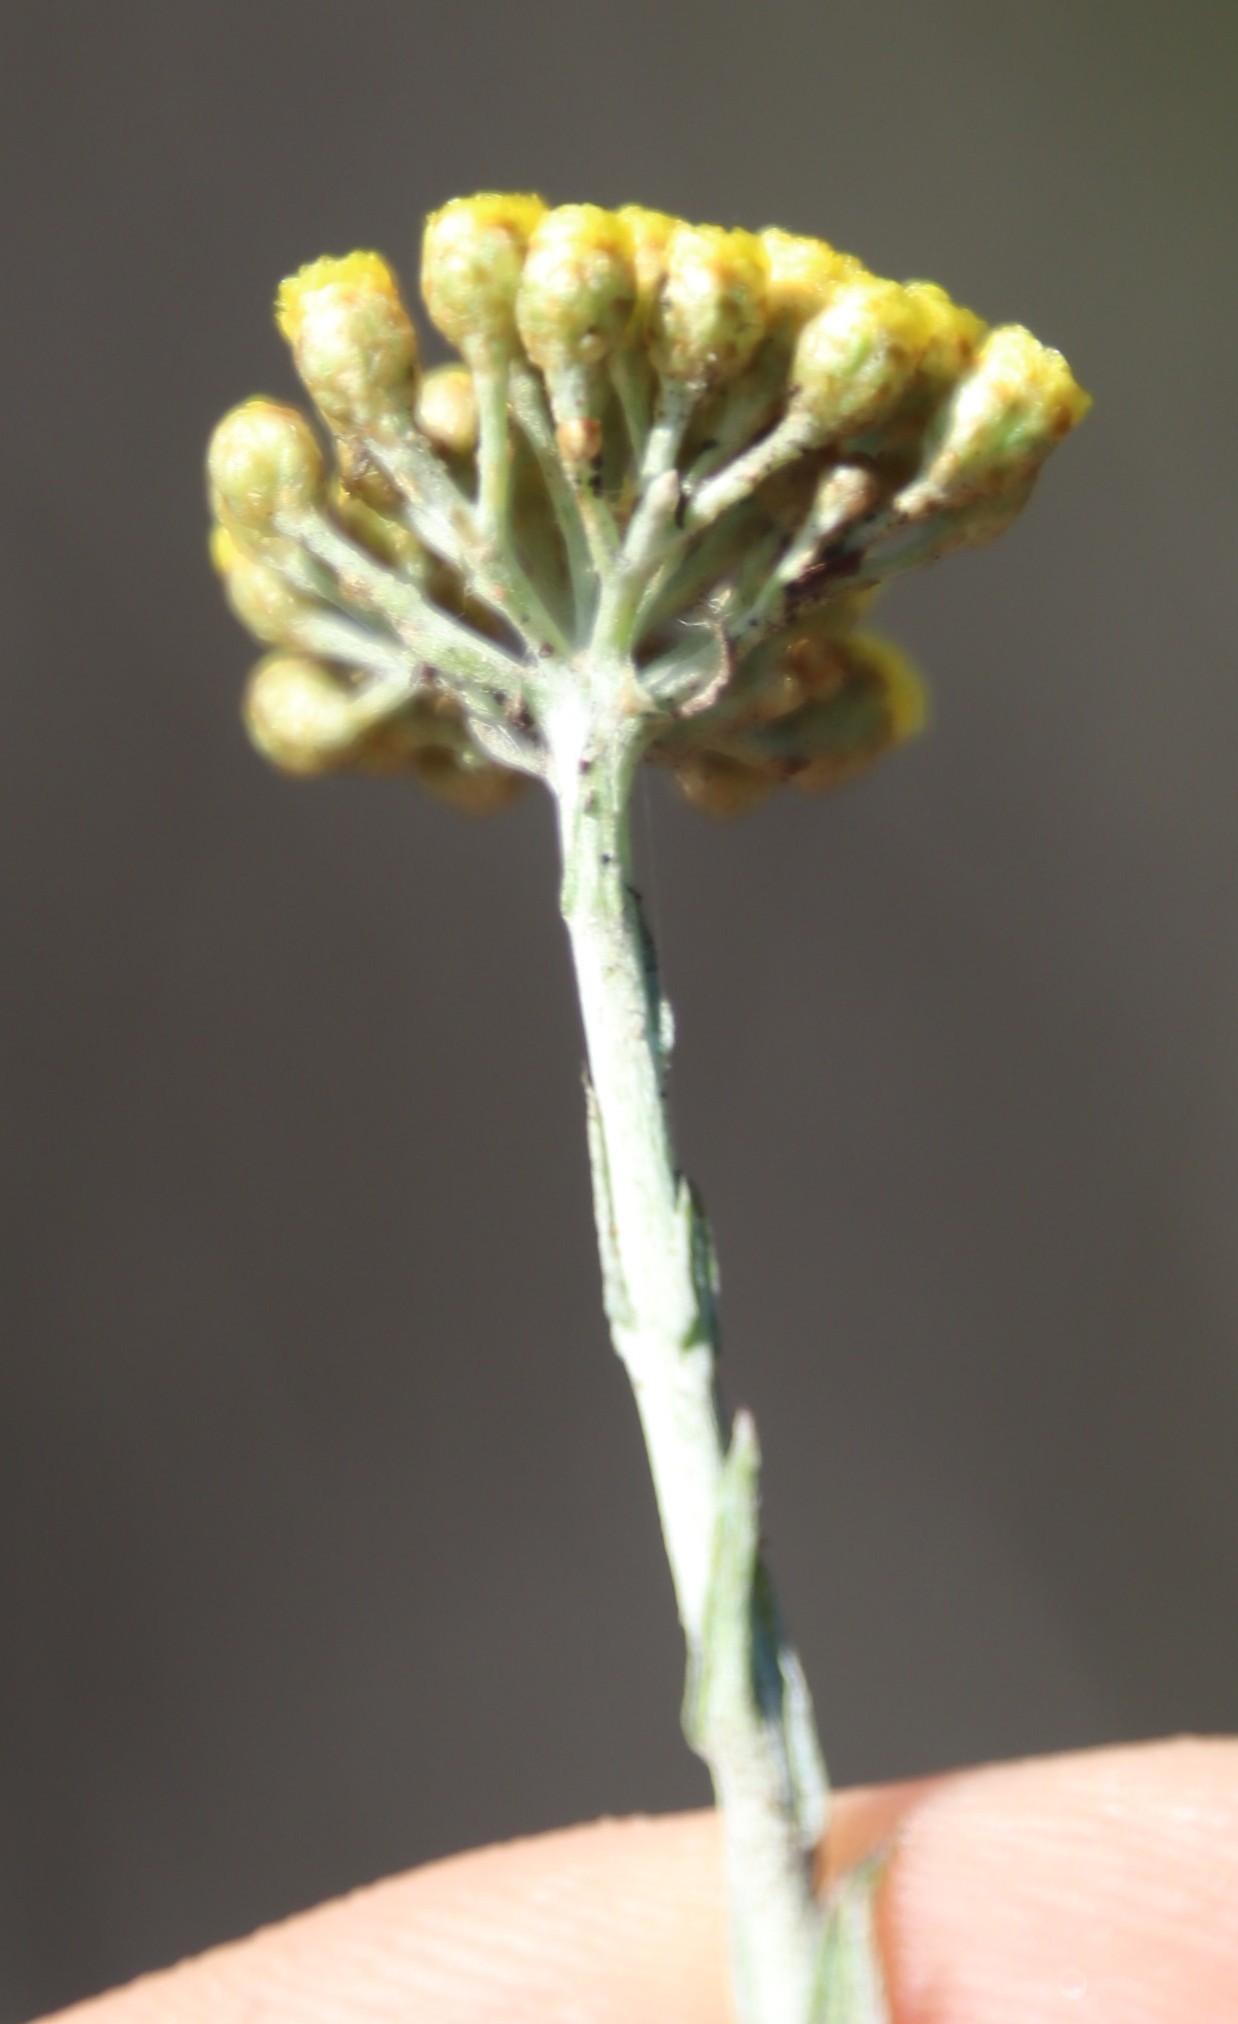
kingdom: Plantae
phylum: Tracheophyta
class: Magnoliopsida
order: Asterales
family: Asteraceae
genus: Helichrysum
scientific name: Helichrysum cymosum
